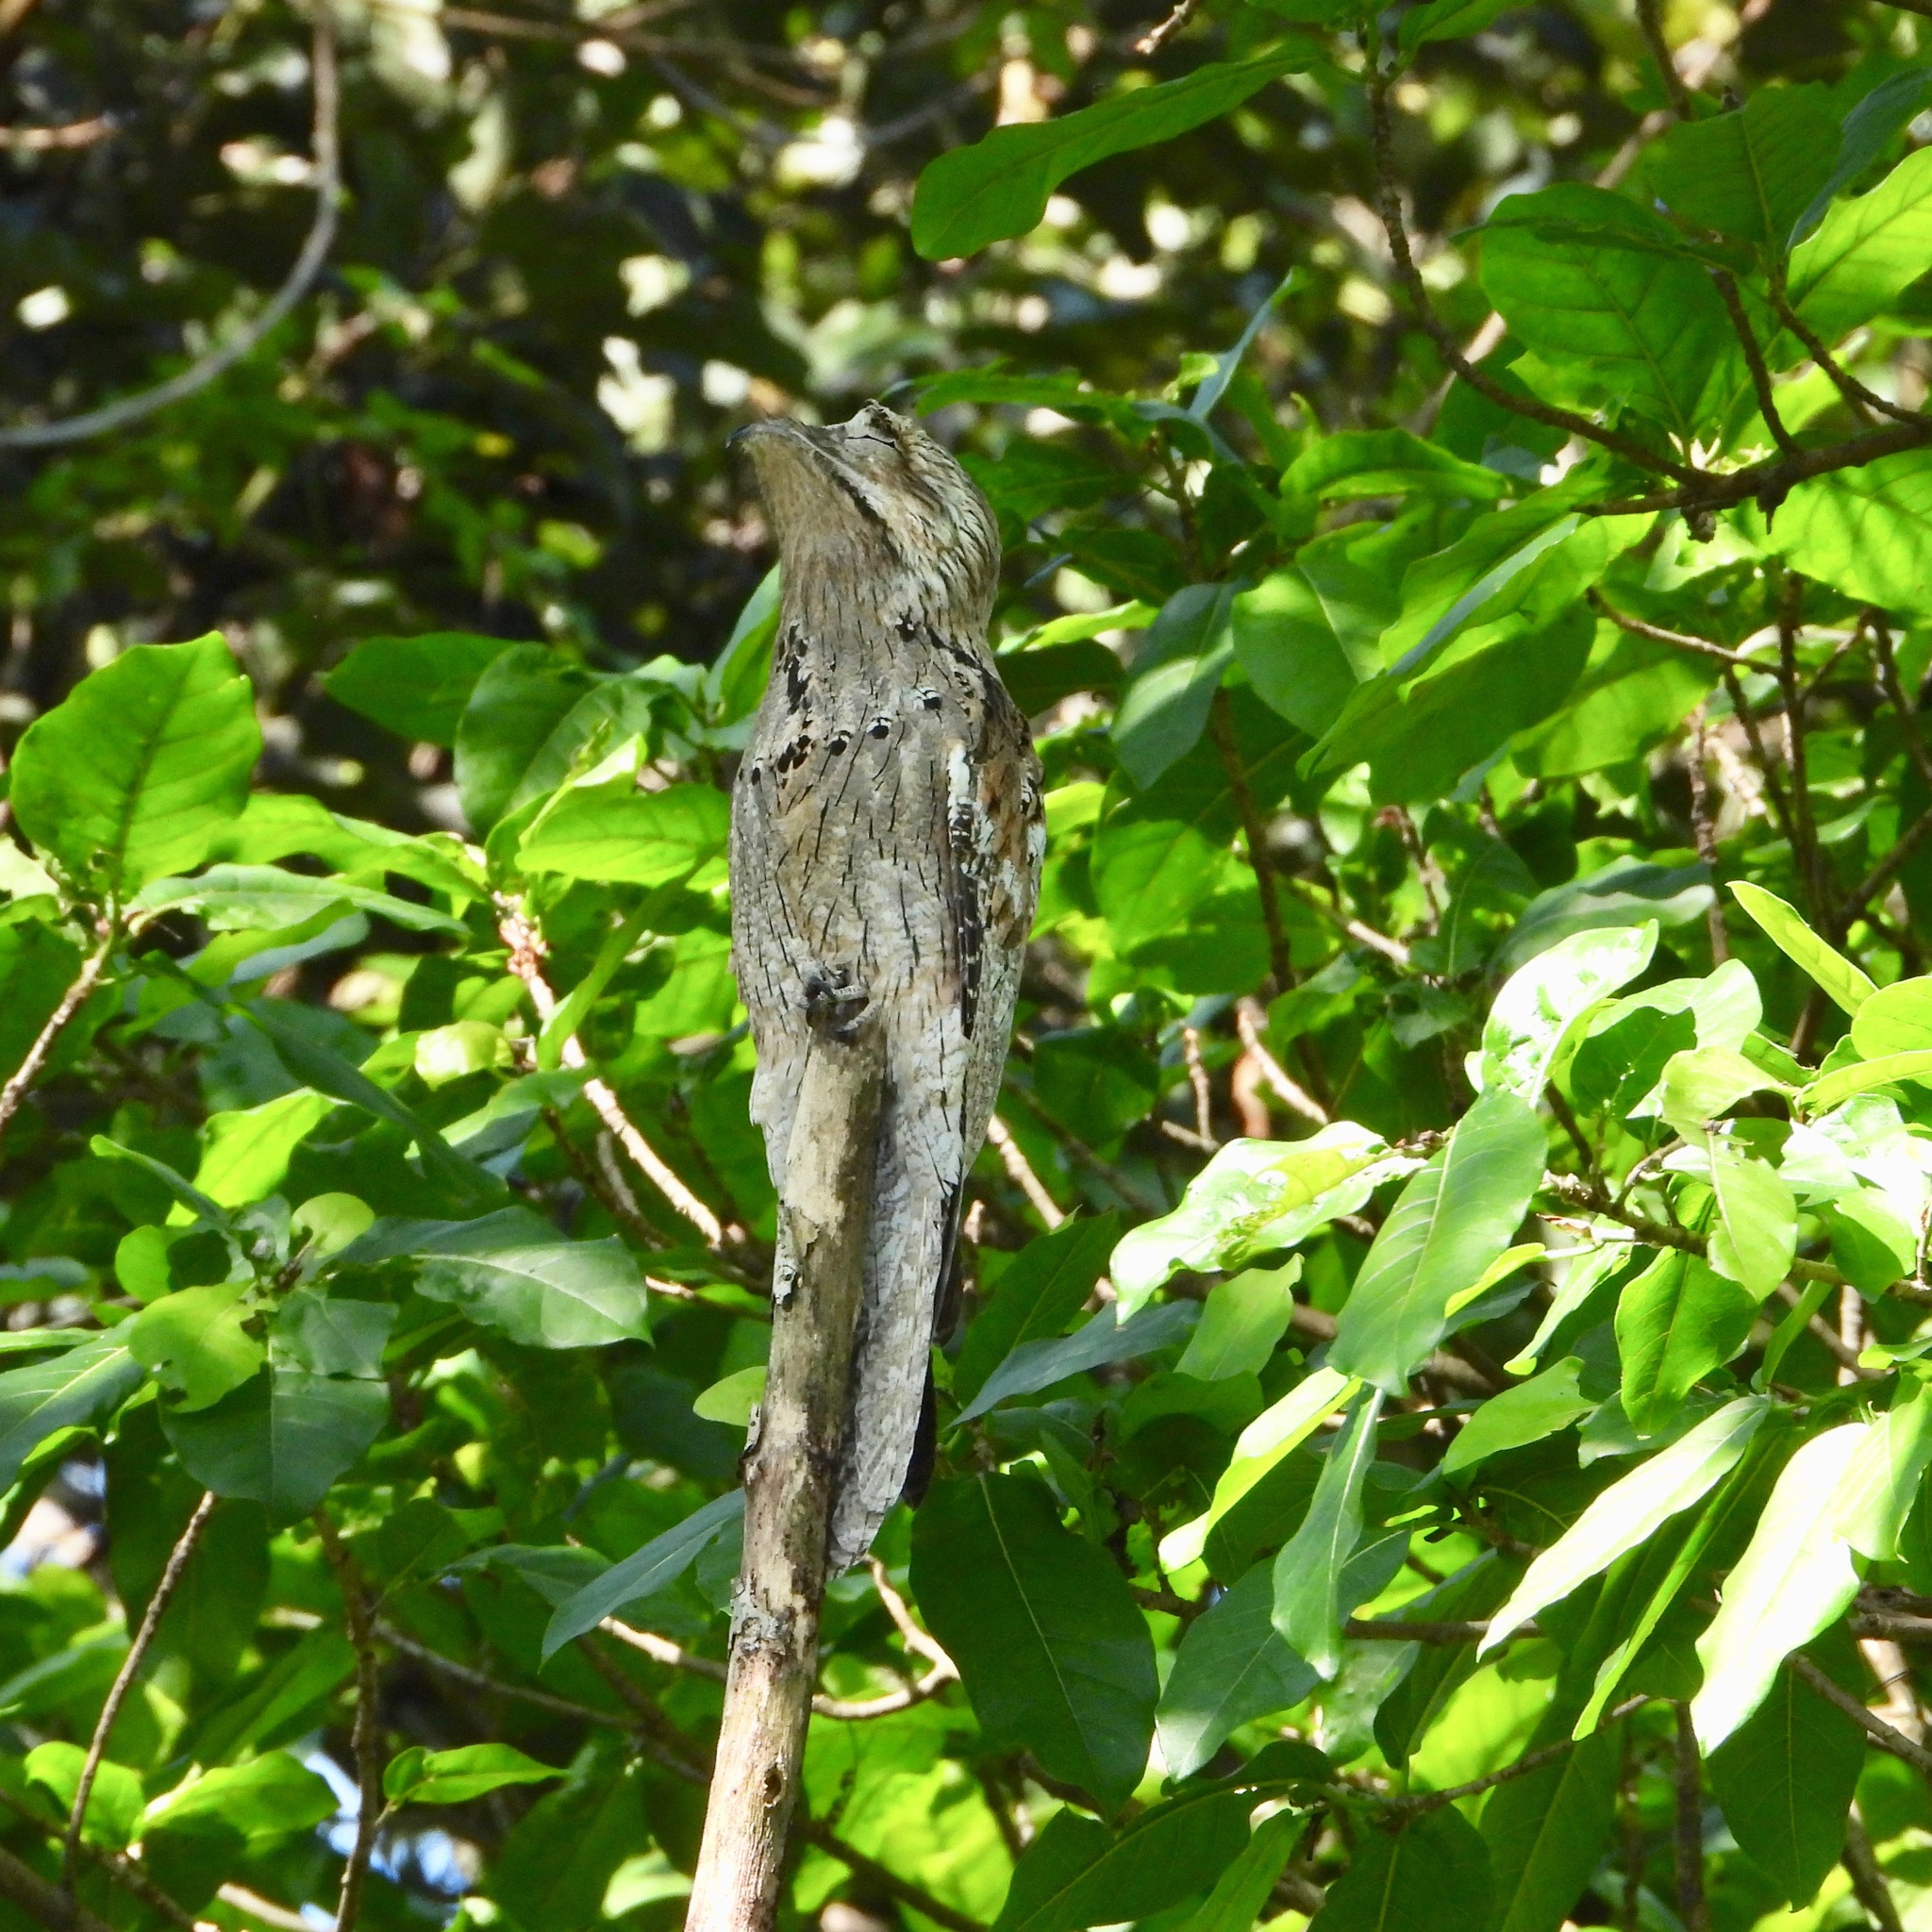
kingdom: Animalia
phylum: Chordata
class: Aves
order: Nyctibiiformes
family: Nyctibiidae
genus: Nyctibius
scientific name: Nyctibius jamaicensis
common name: Northern potoo
